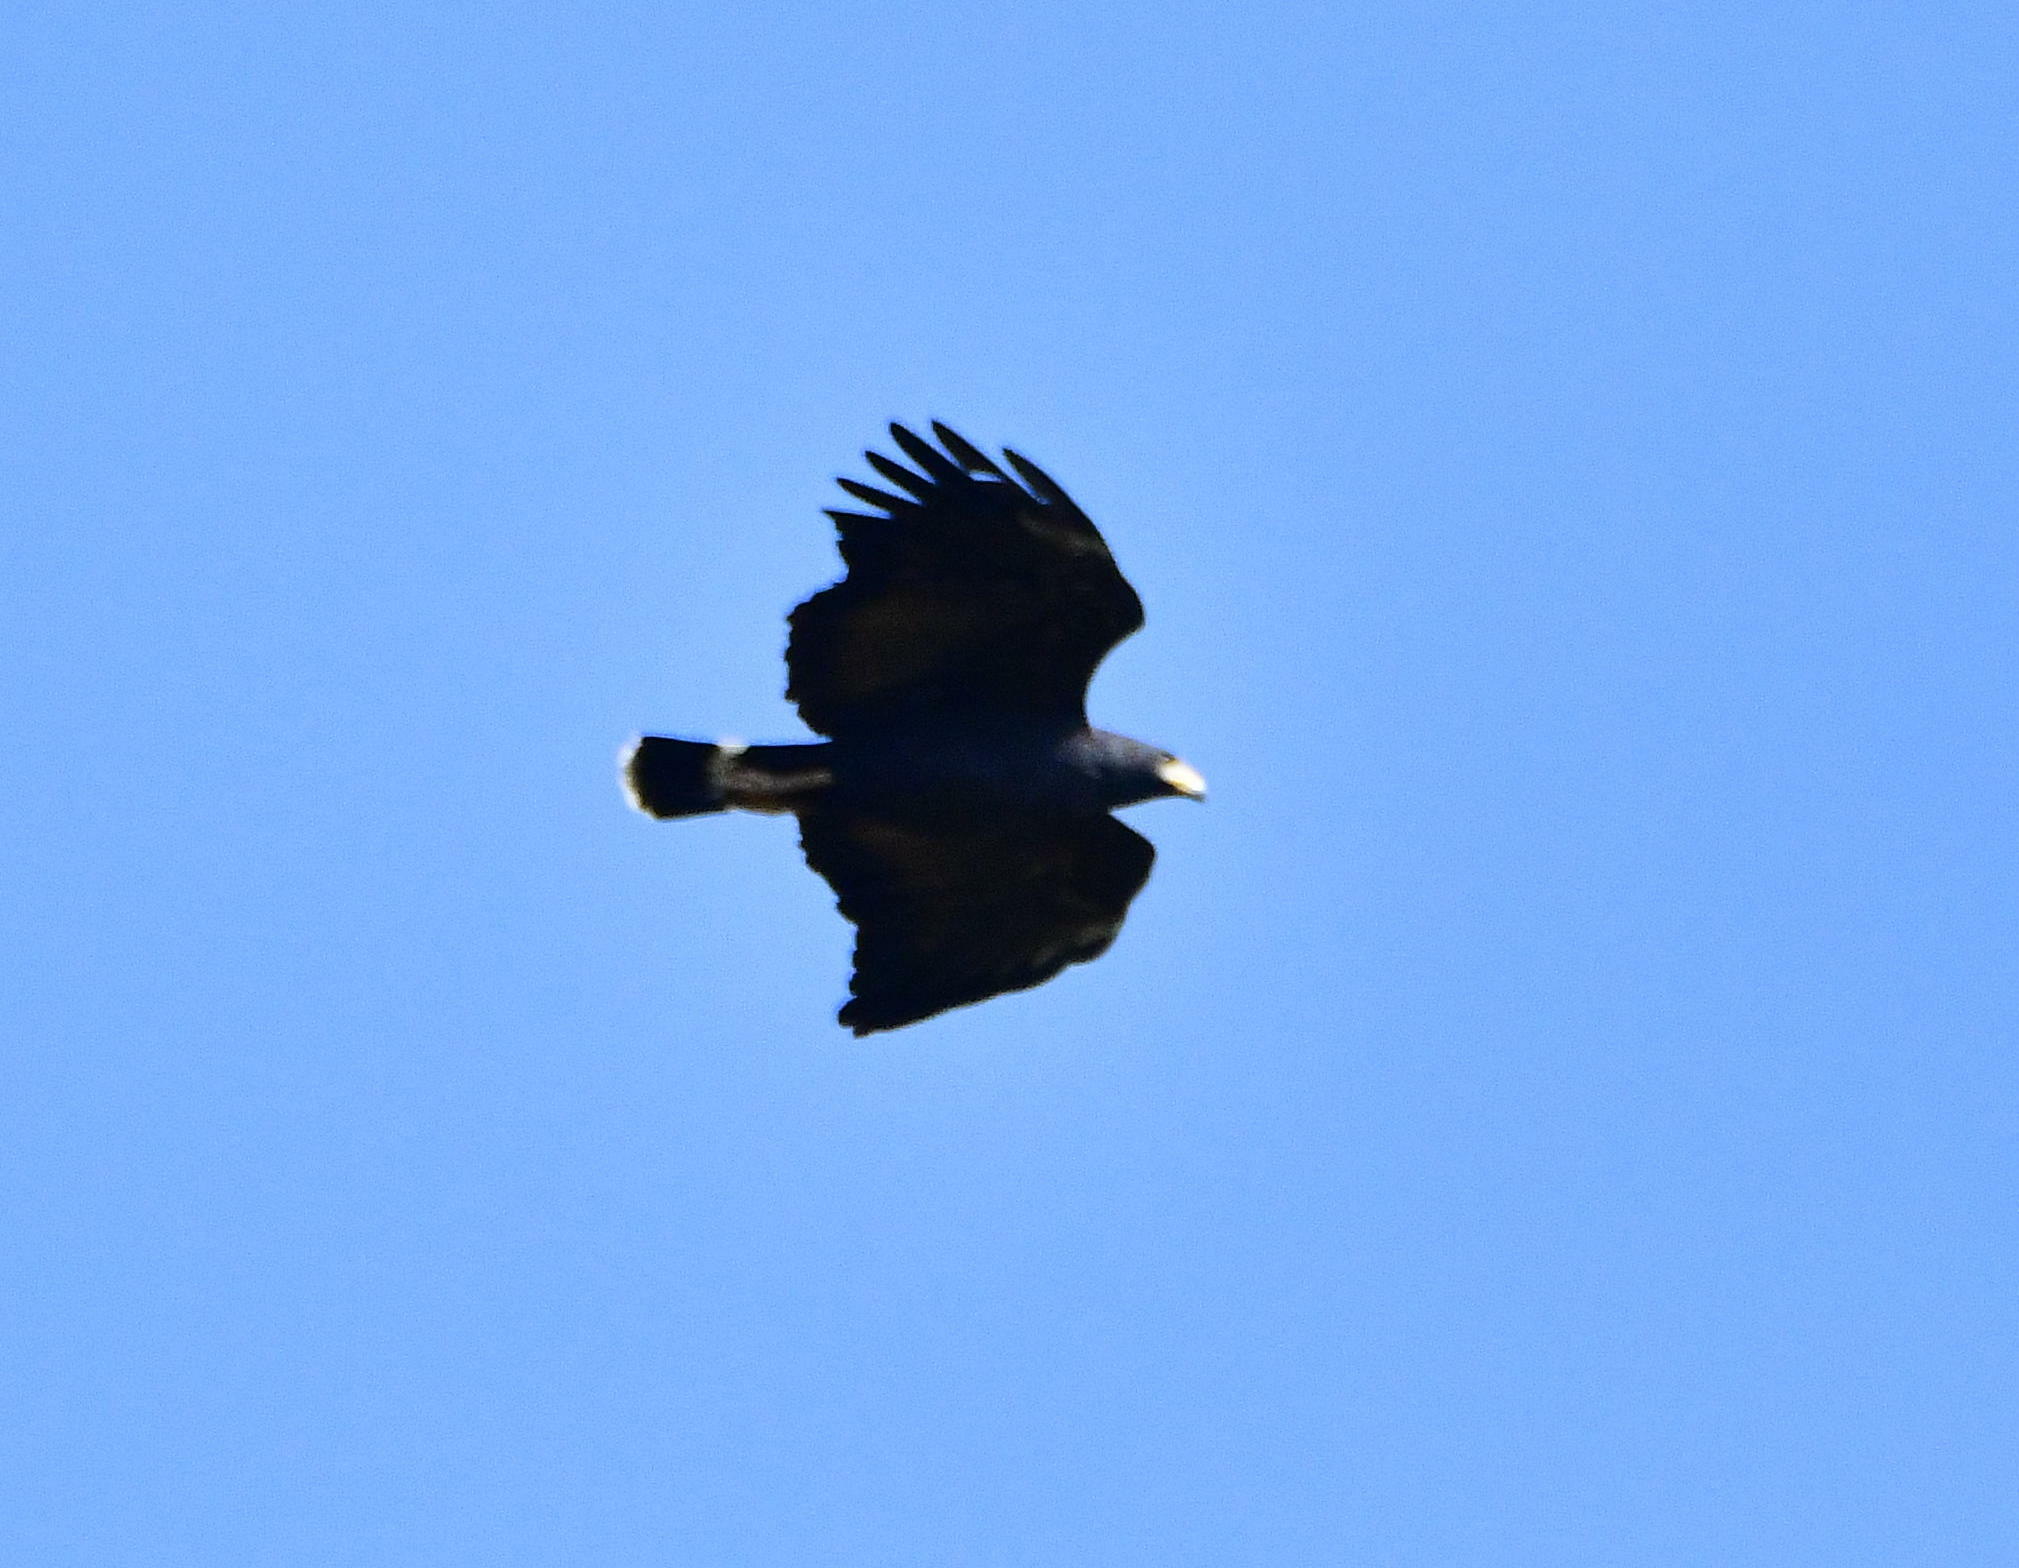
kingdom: Animalia
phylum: Chordata
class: Aves
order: Accipitriformes
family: Accipitridae
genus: Buteogallus
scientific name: Buteogallus anthracinus
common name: Common black hawk
